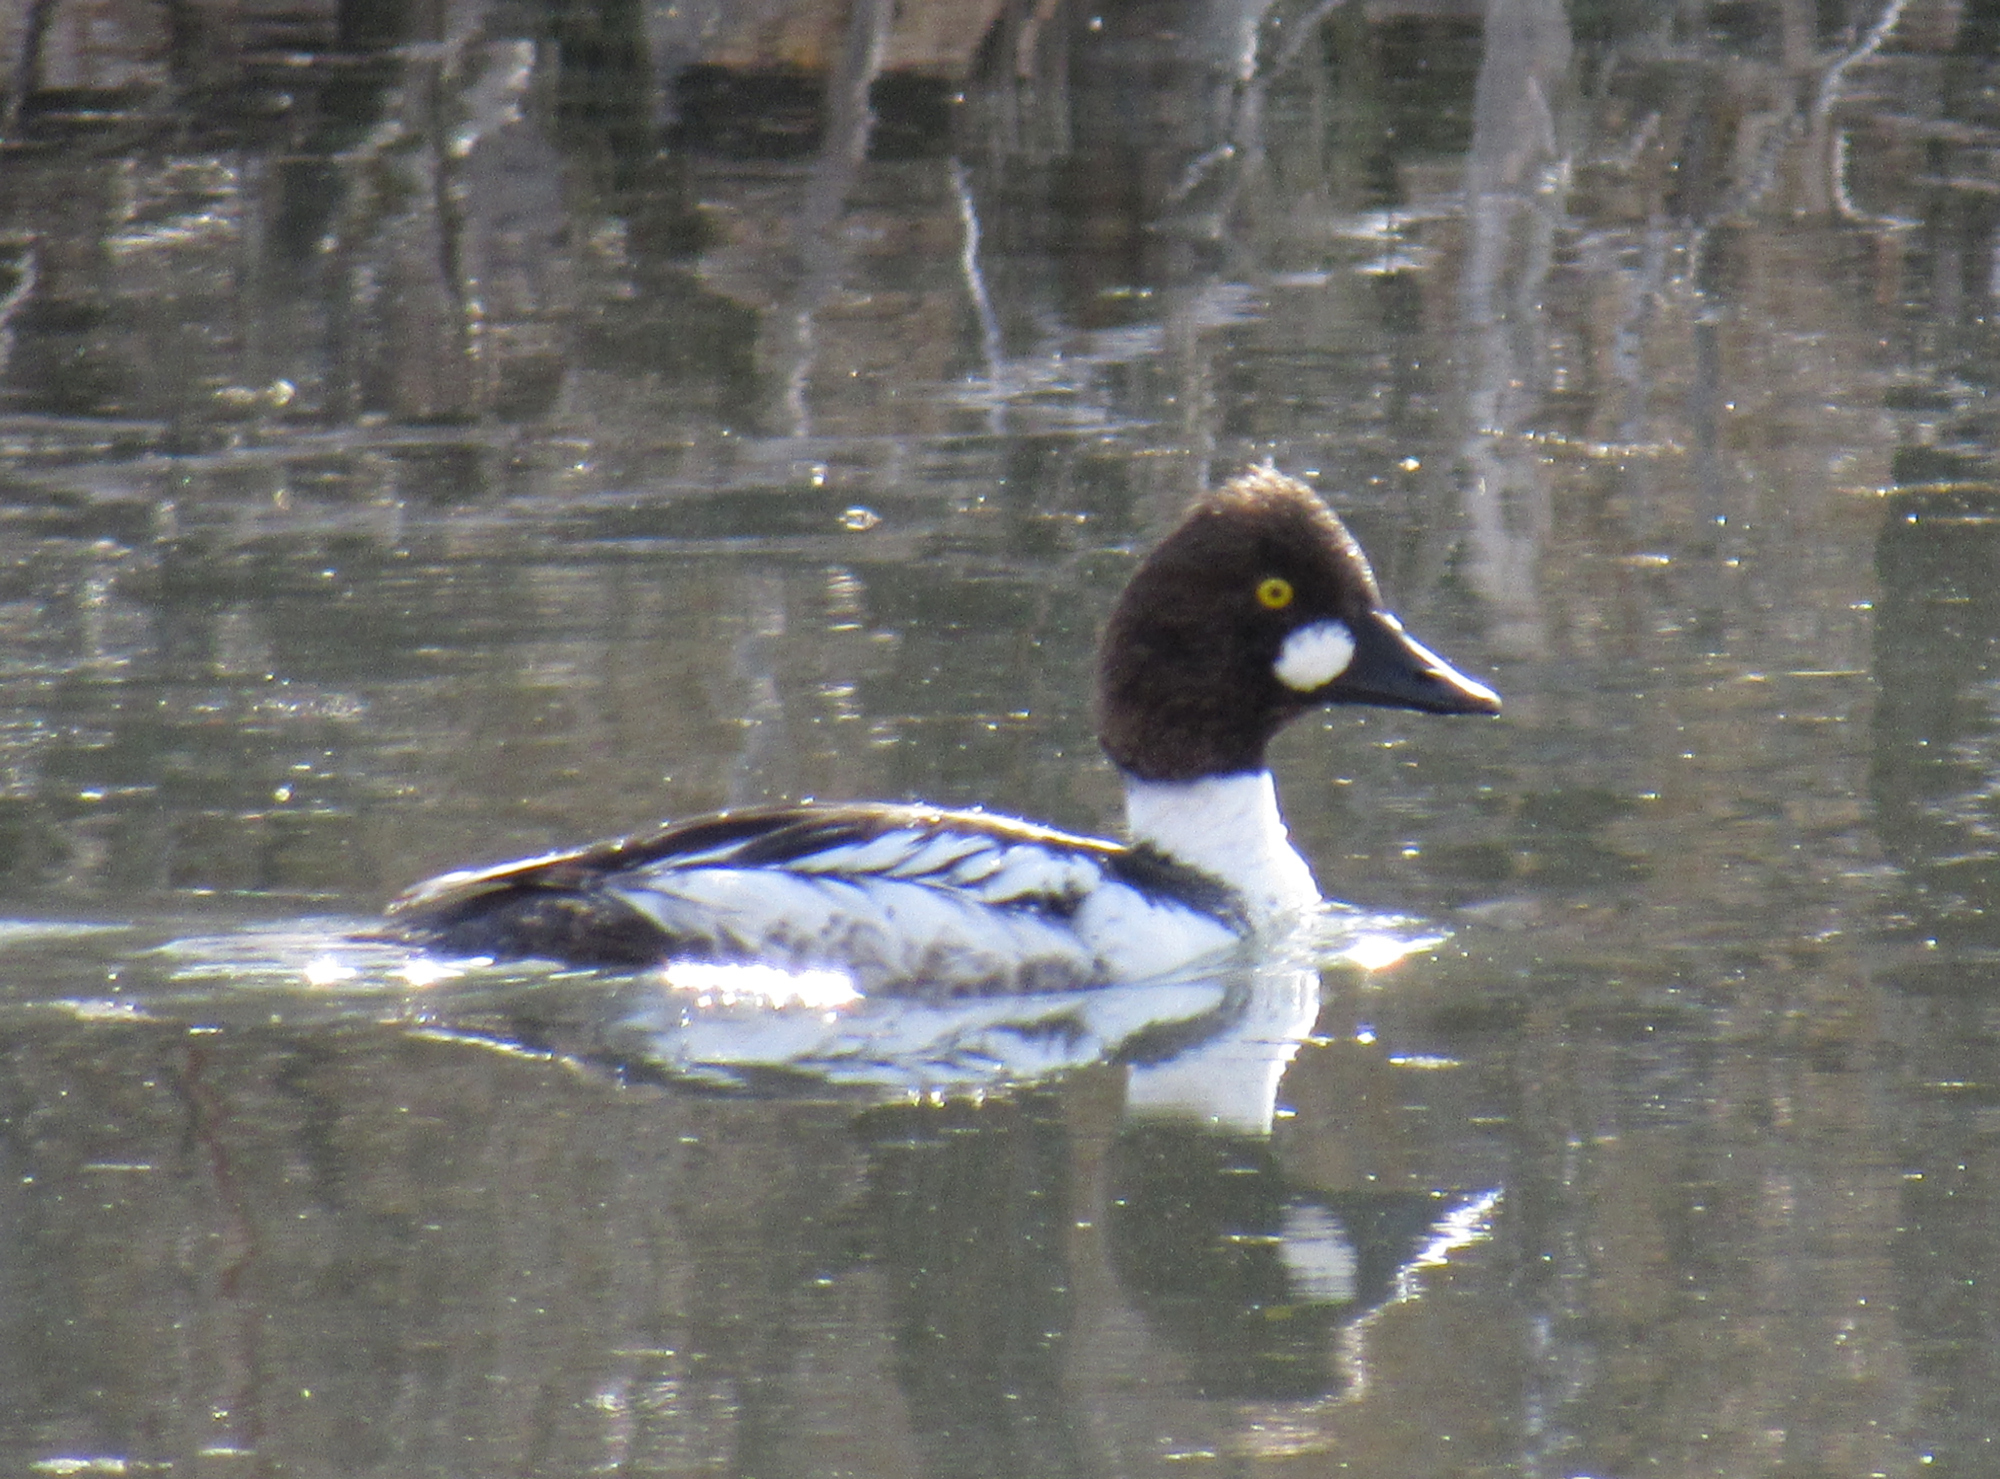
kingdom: Animalia
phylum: Chordata
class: Aves
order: Anseriformes
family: Anatidae
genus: Bucephala
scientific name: Bucephala clangula
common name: Common goldeneye
